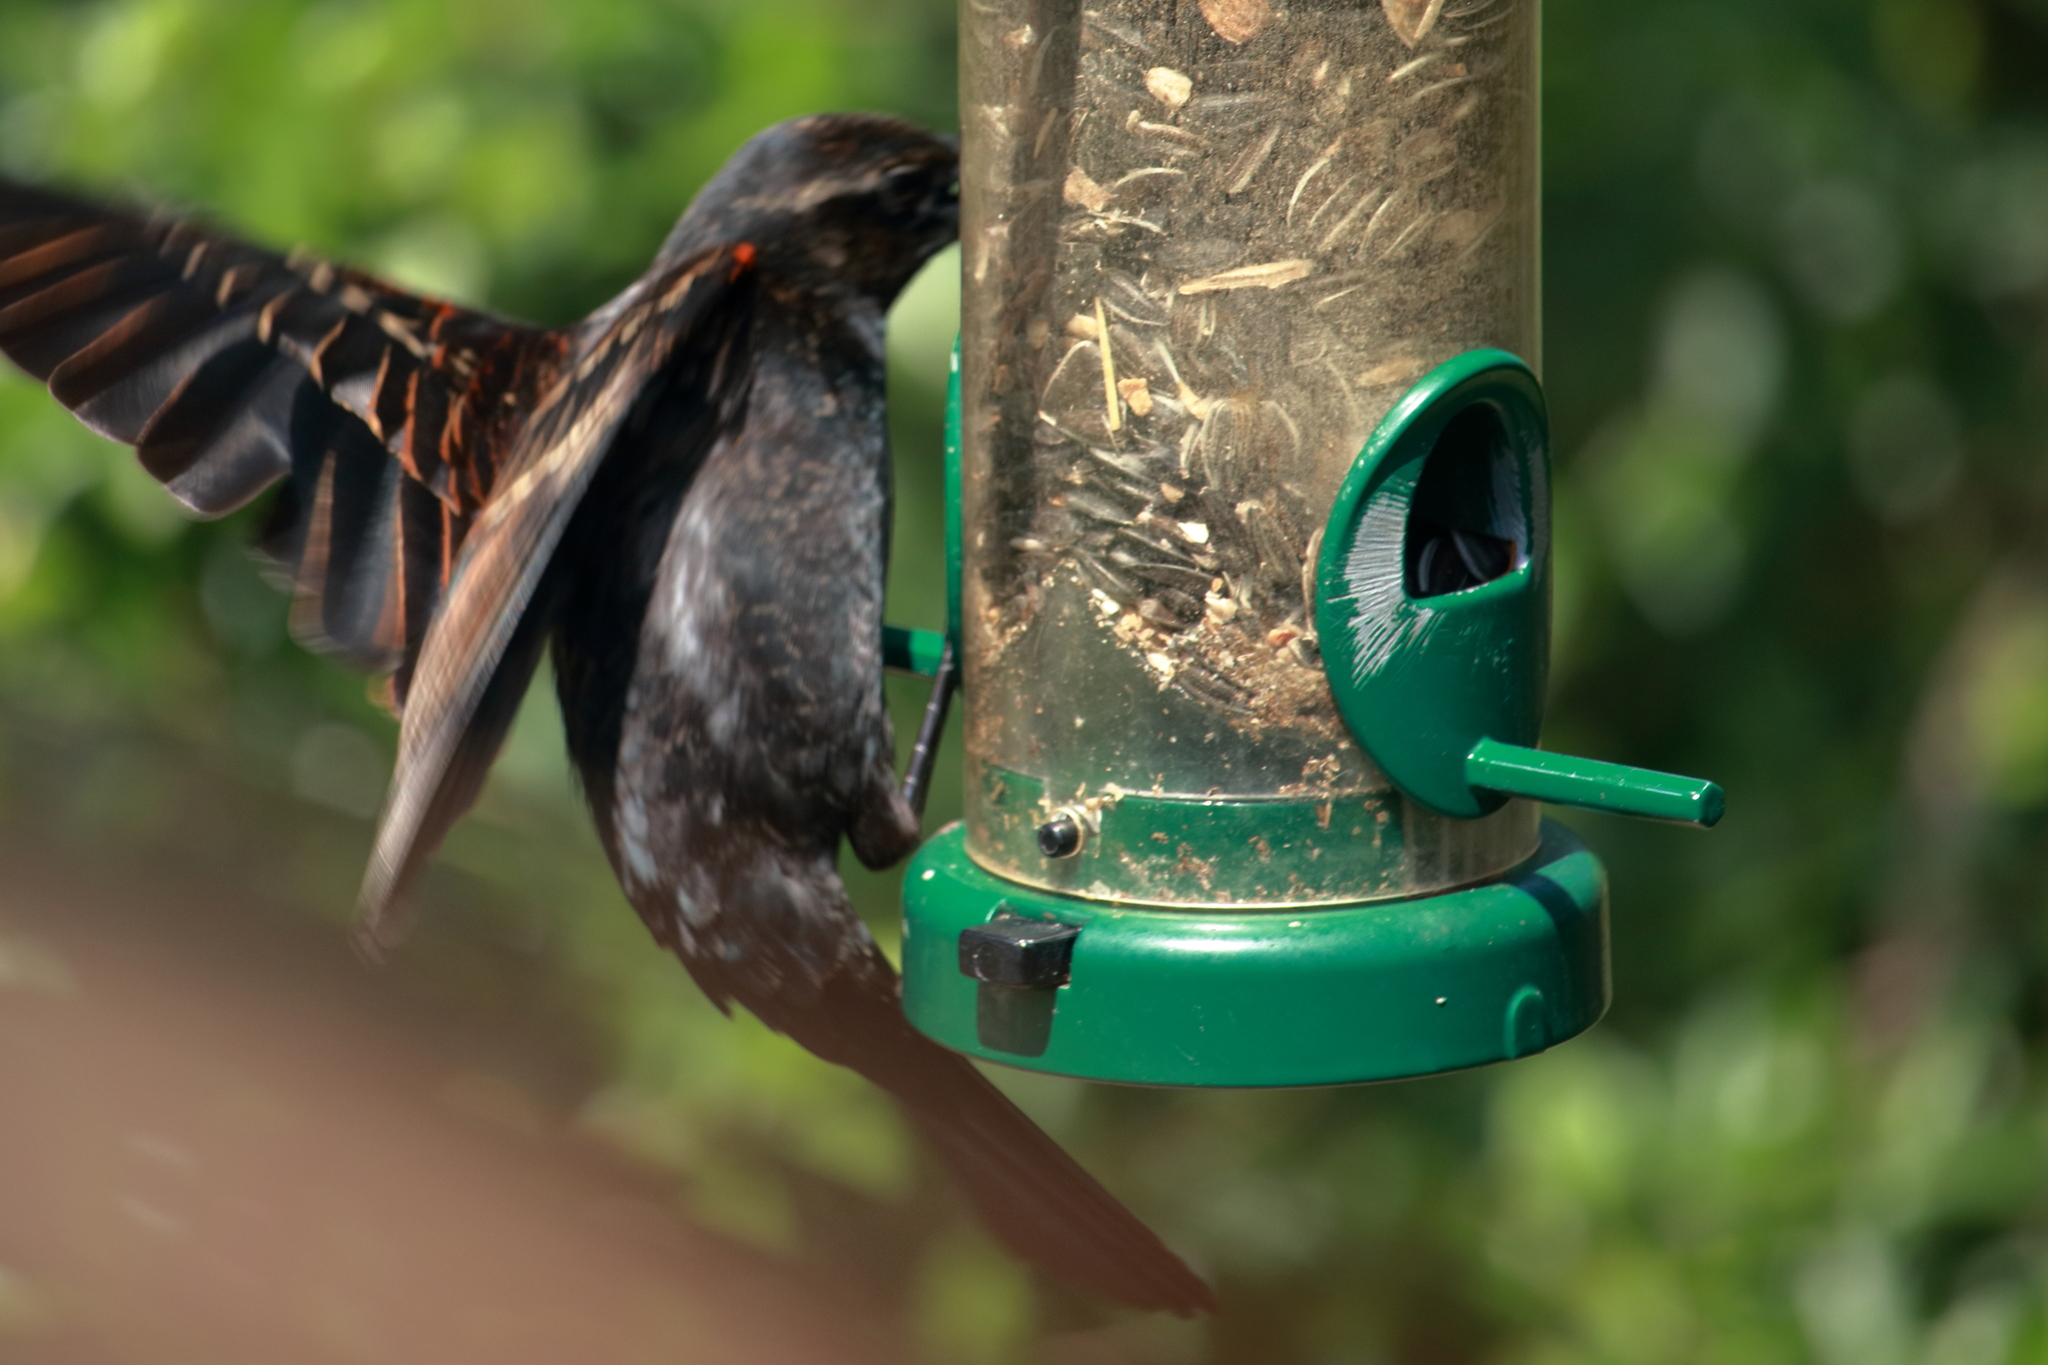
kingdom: Animalia
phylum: Chordata
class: Aves
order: Passeriformes
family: Icteridae
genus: Agelaius
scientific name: Agelaius phoeniceus
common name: Red-winged blackbird
